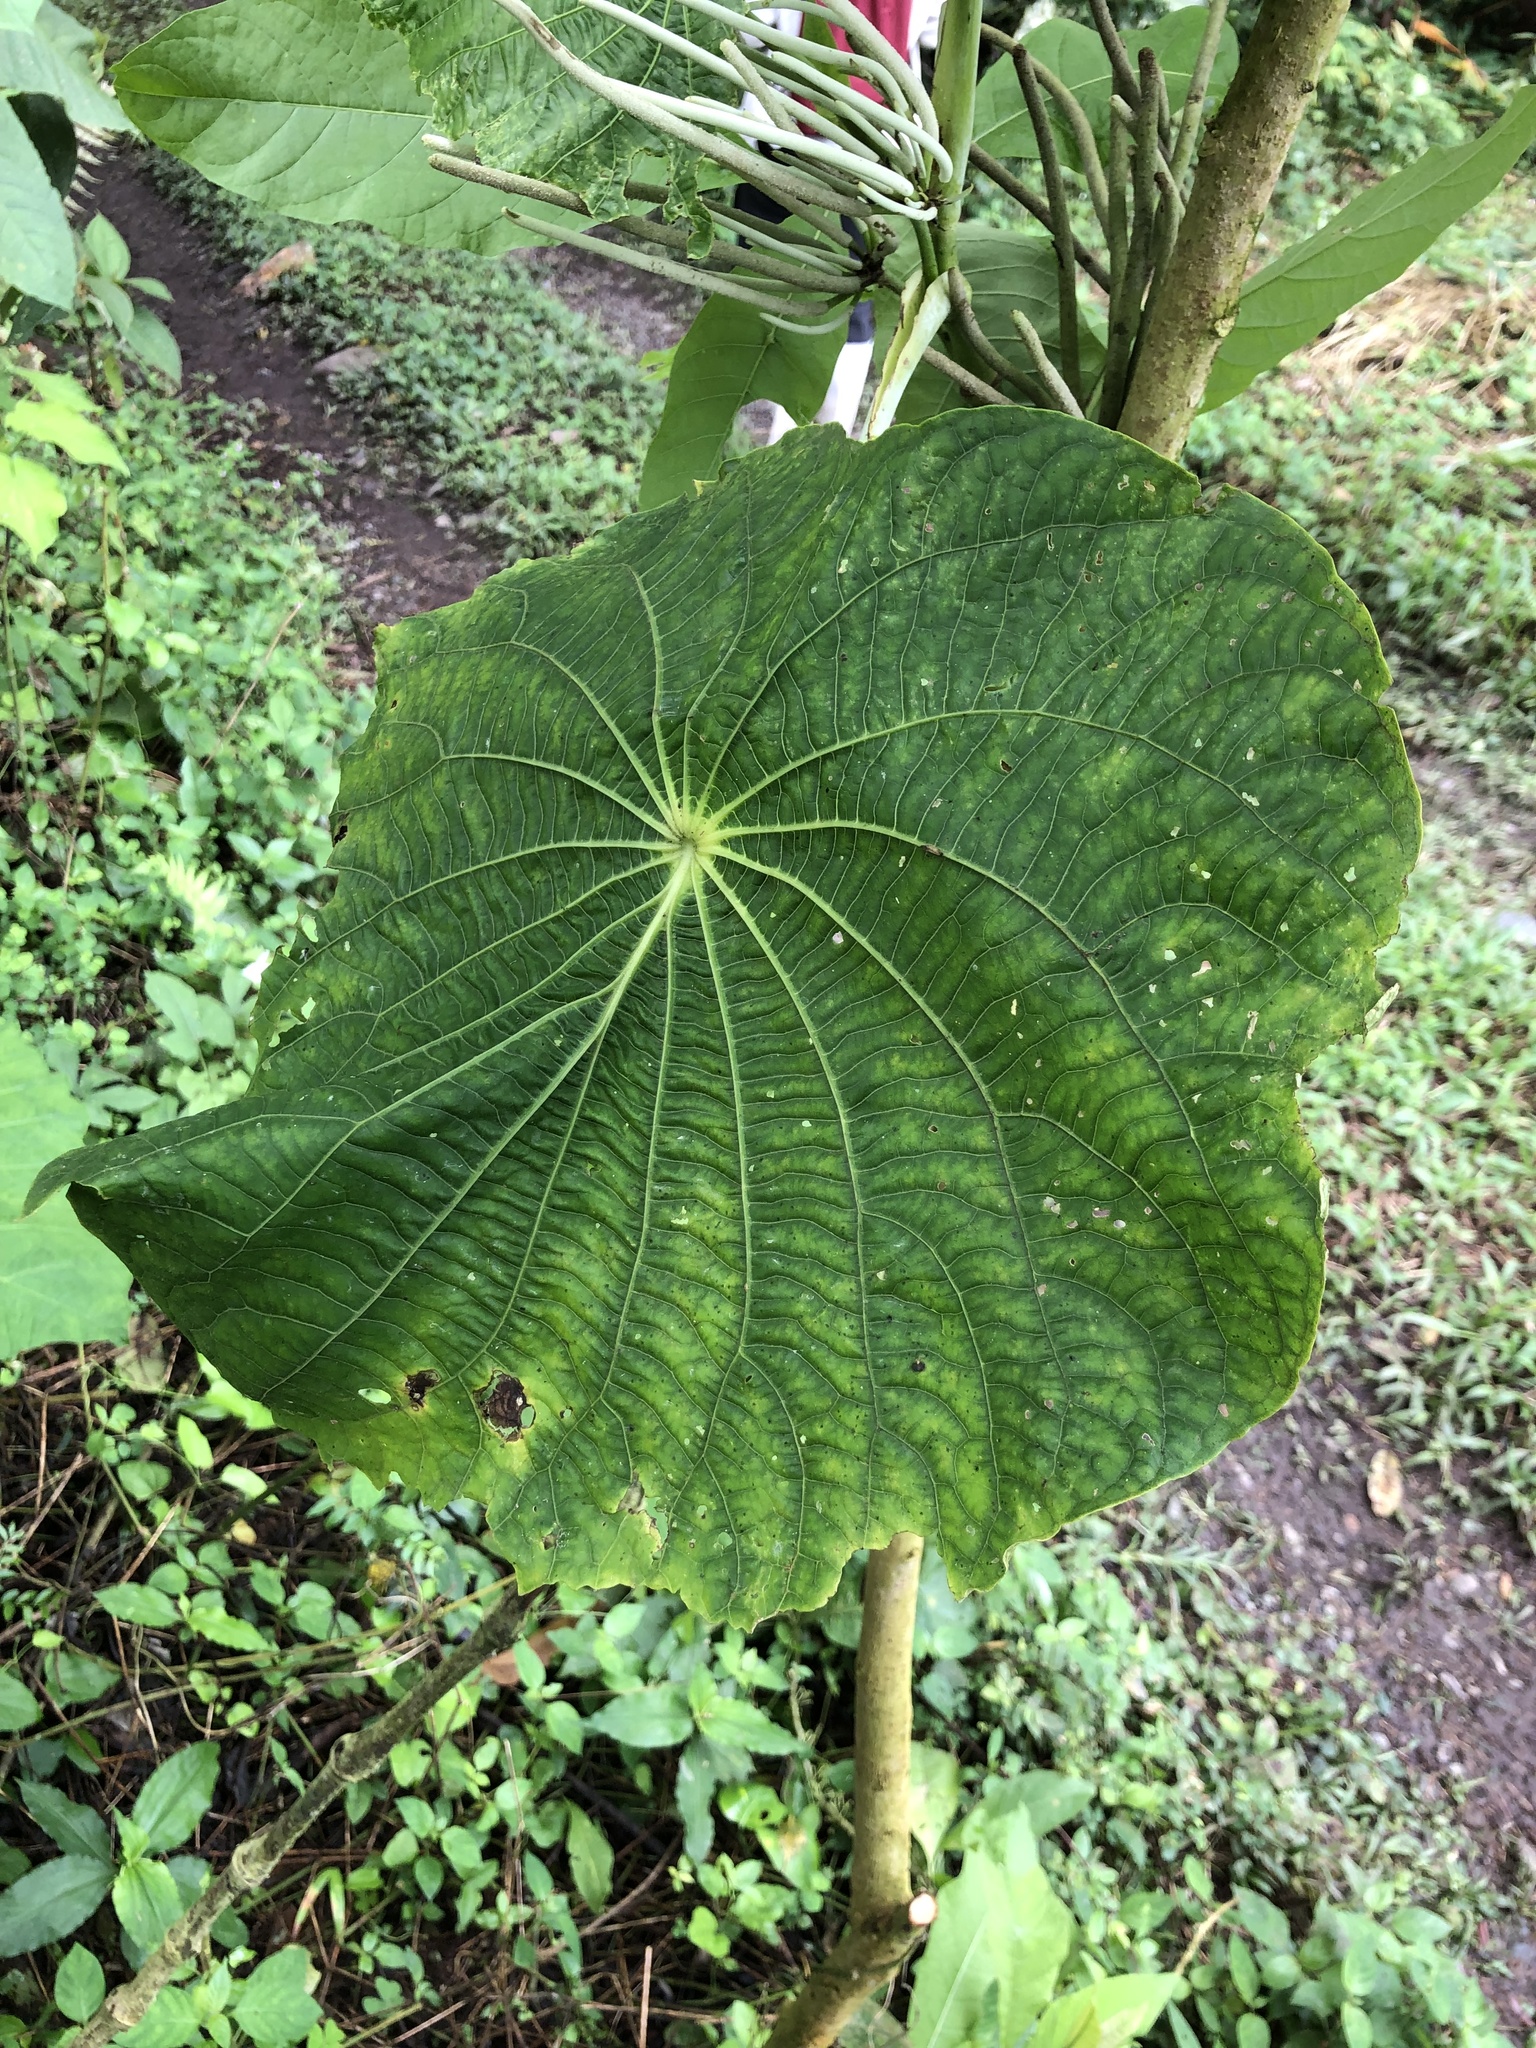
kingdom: Plantae
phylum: Tracheophyta
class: Magnoliopsida
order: Piperales
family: Piperaceae
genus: Piper
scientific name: Piper peltatum
